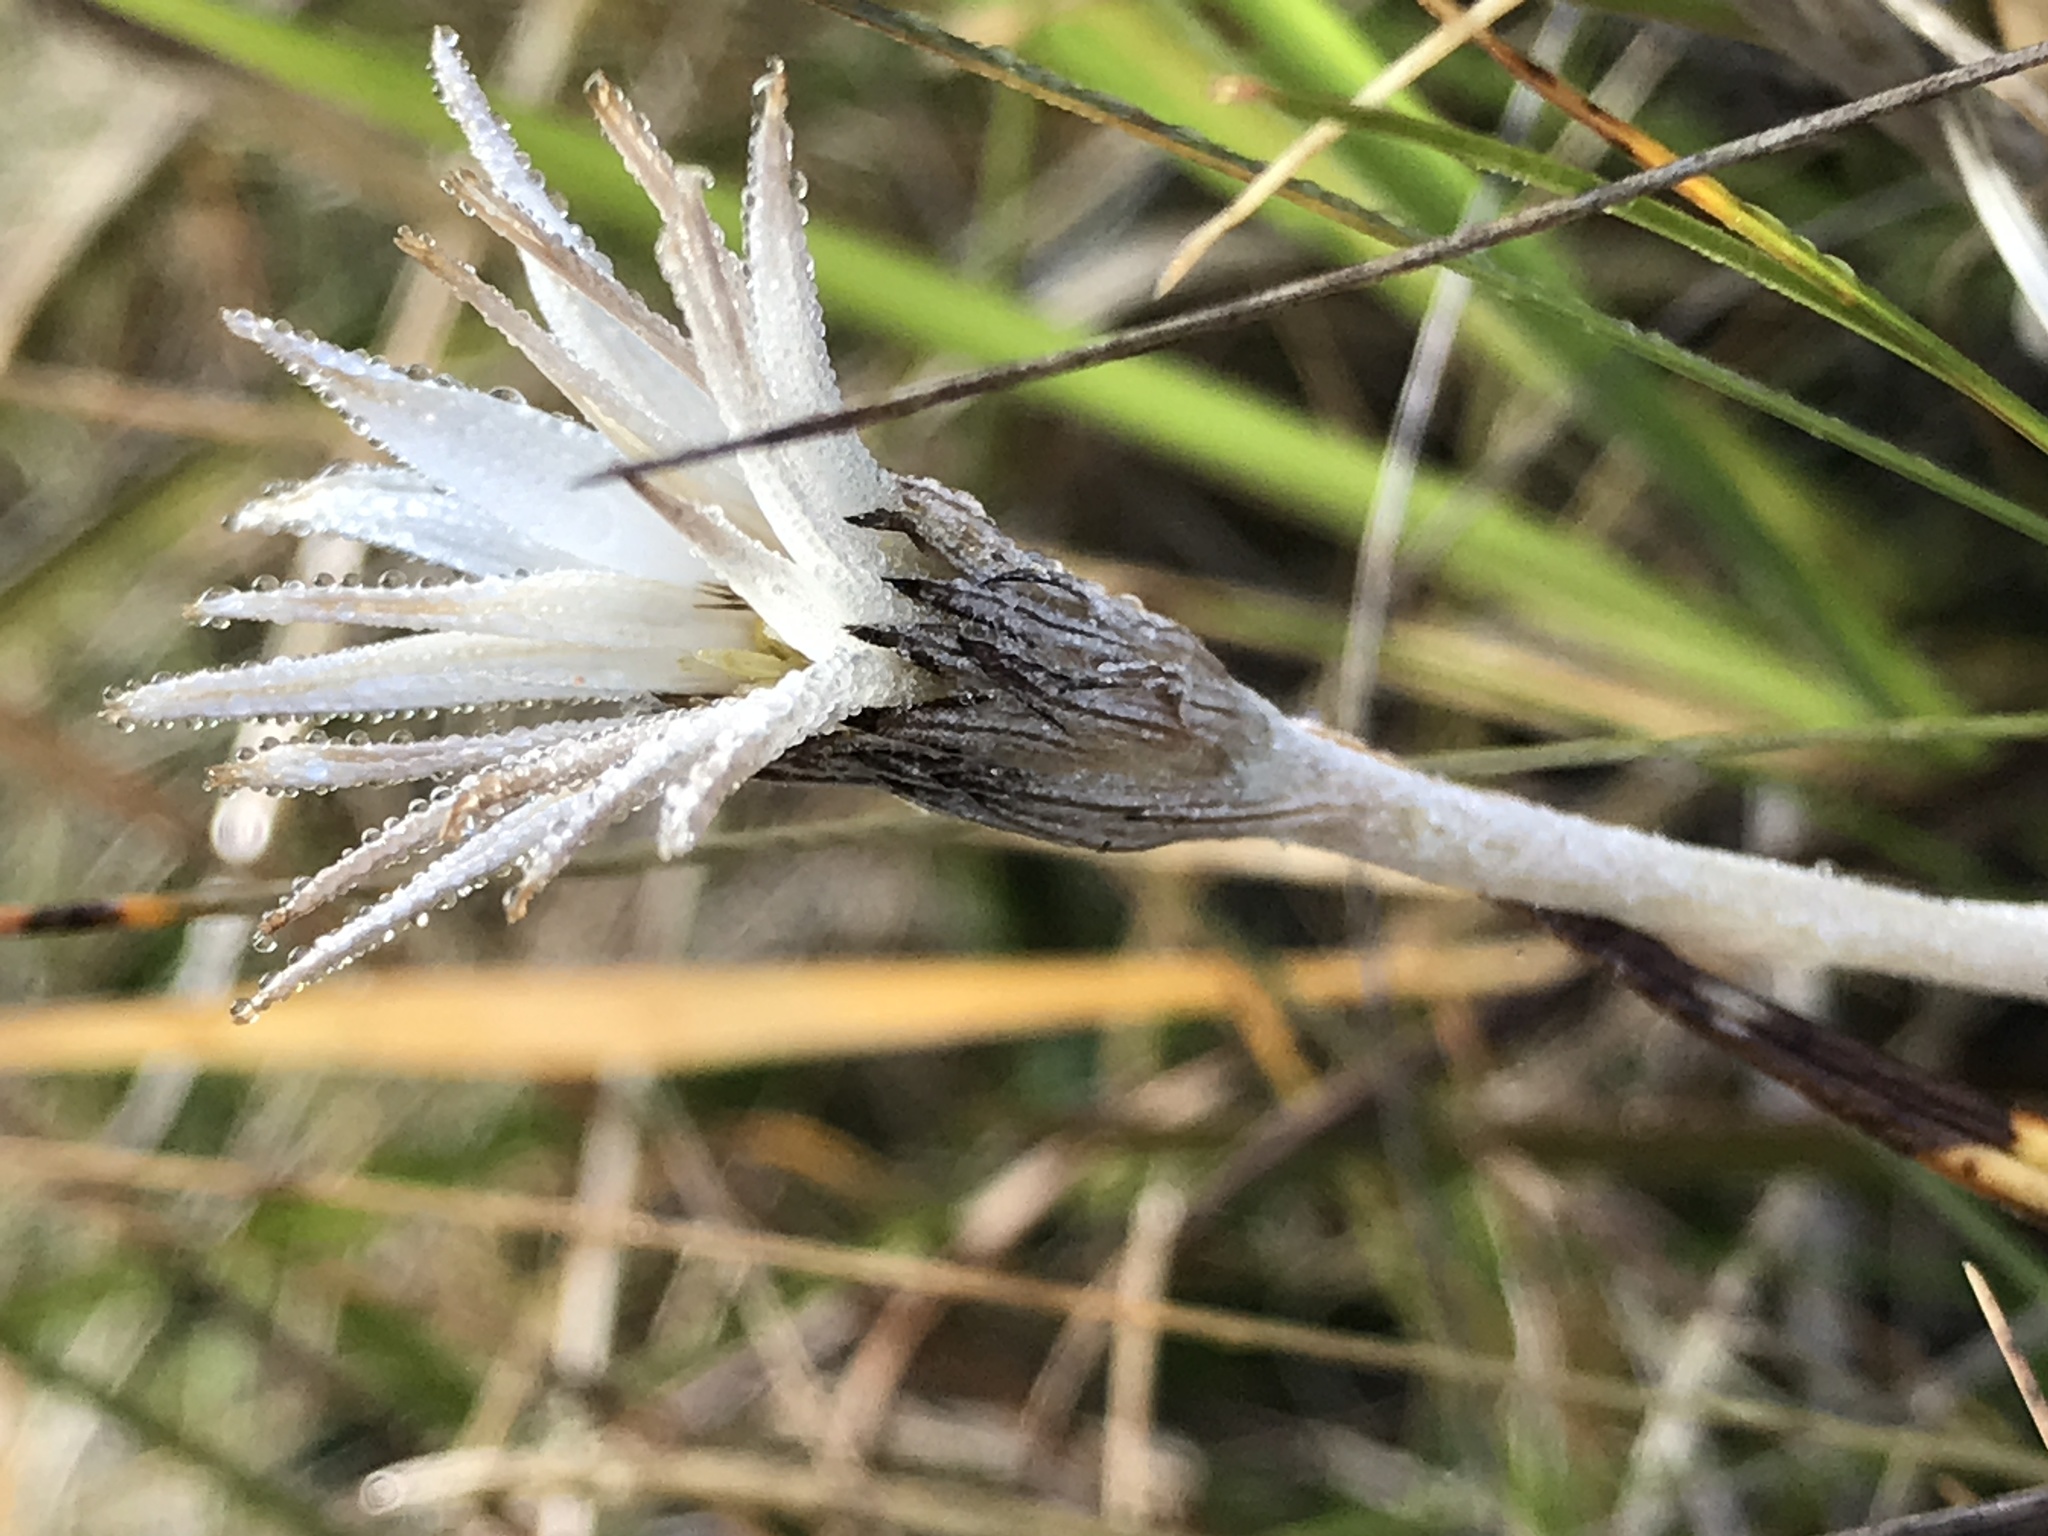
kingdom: Plantae
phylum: Tracheophyta
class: Magnoliopsida
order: Asterales
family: Asteraceae
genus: Celmisia
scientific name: Celmisia gracilenta
